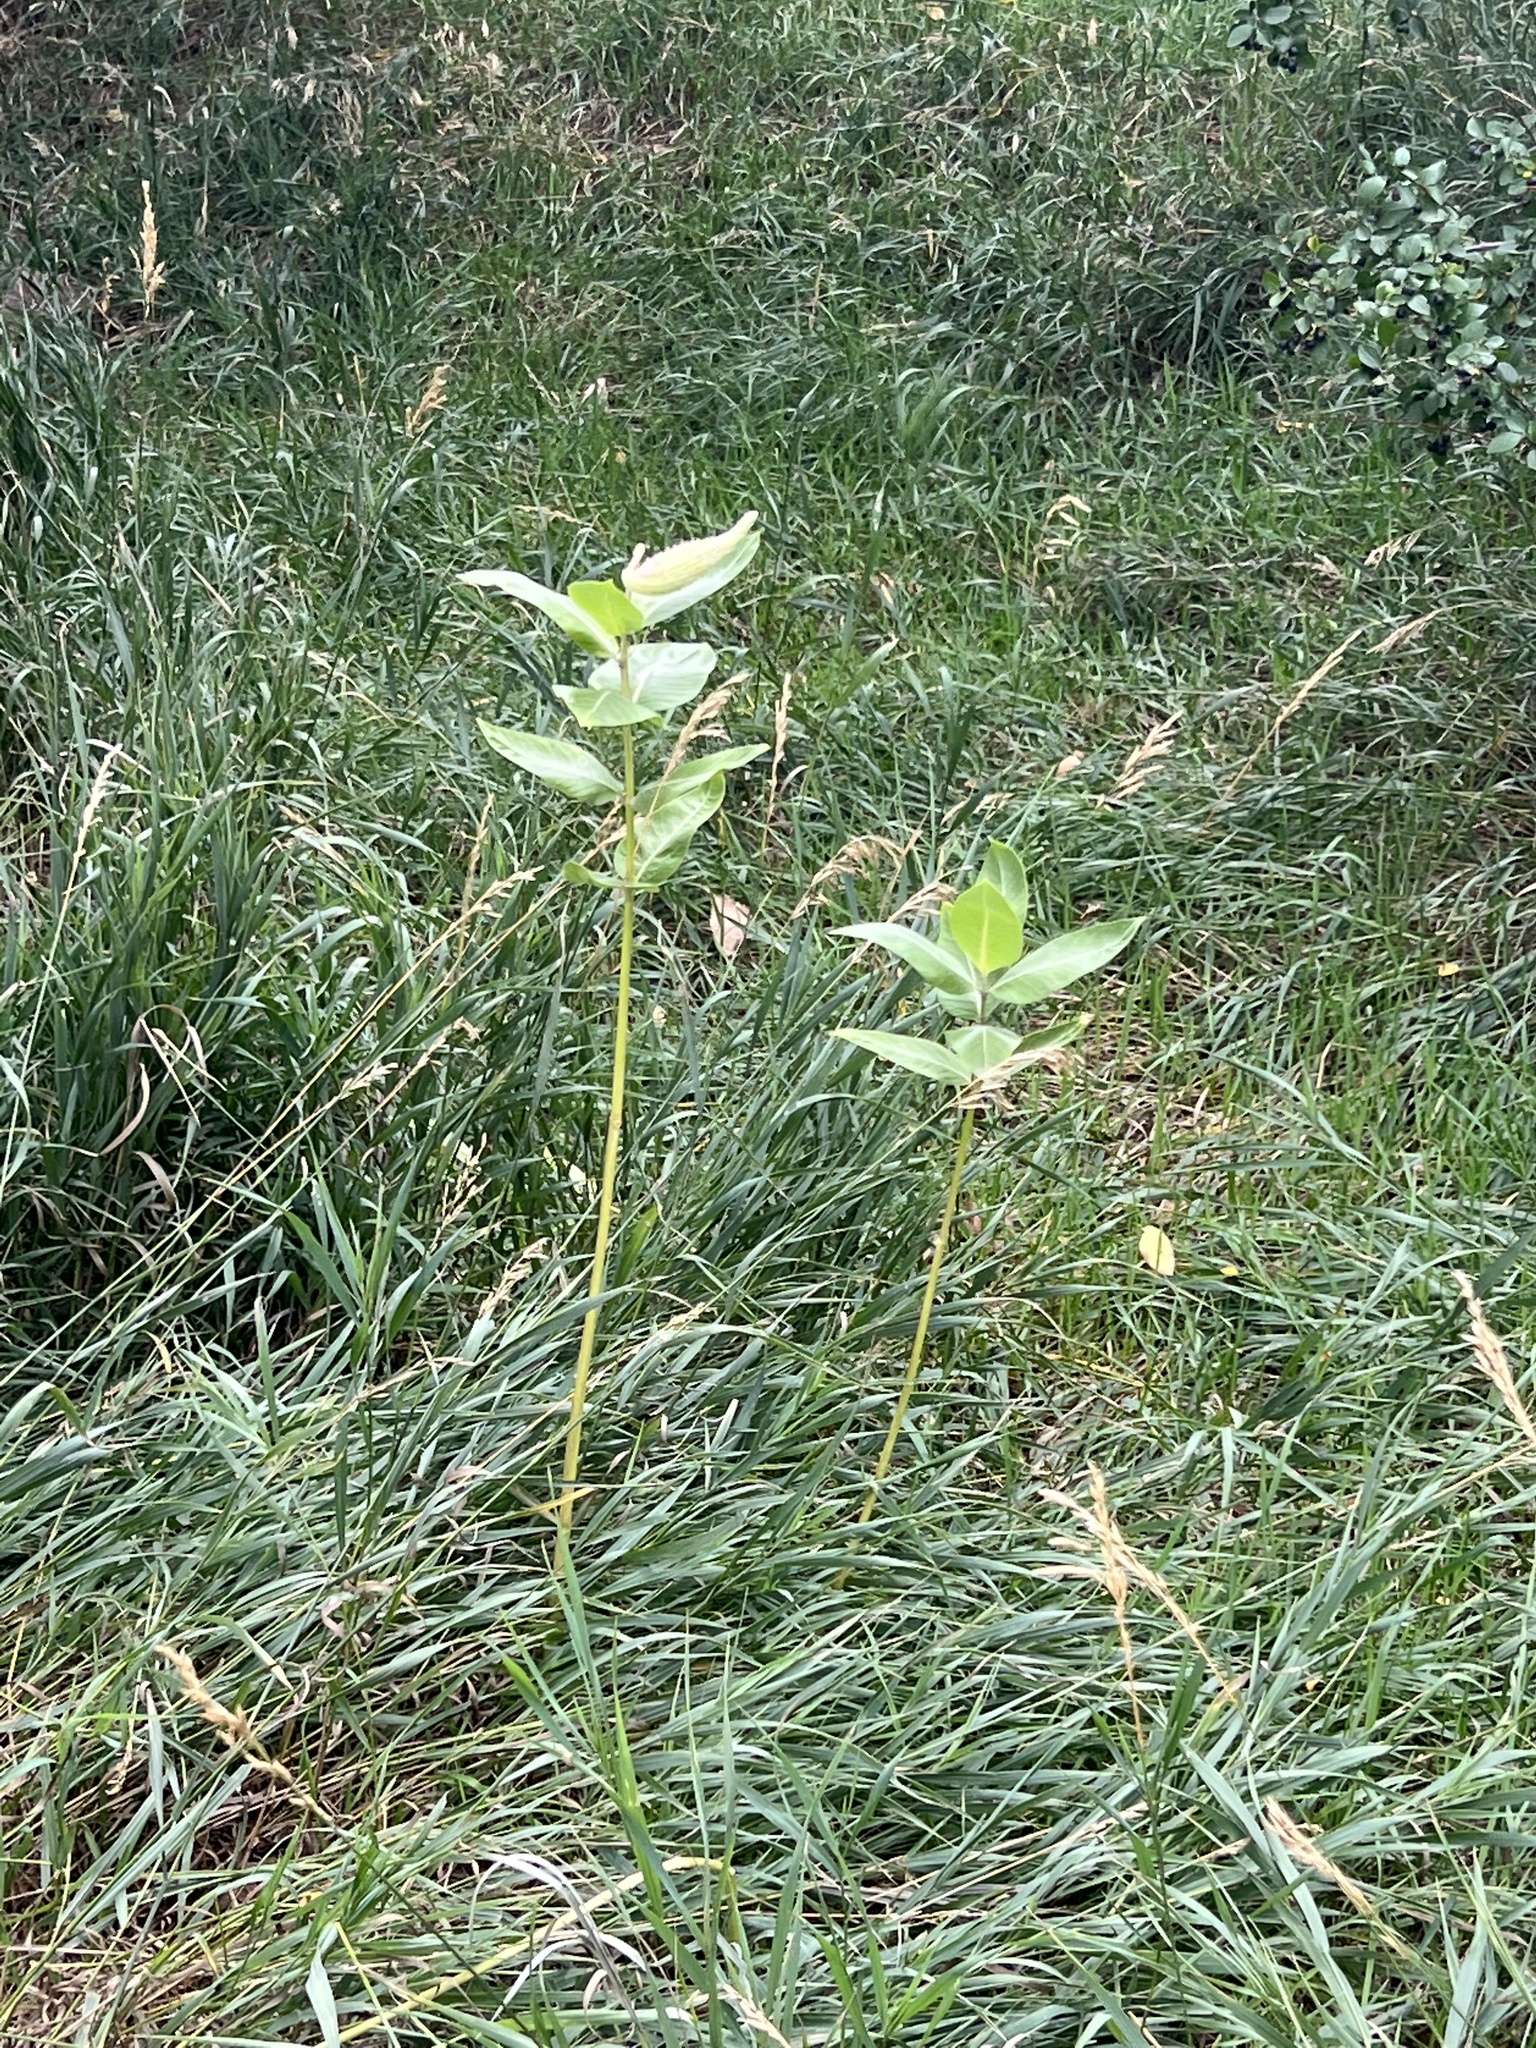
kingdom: Plantae
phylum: Tracheophyta
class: Magnoliopsida
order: Gentianales
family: Apocynaceae
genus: Asclepias
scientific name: Asclepias speciosa
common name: Showy milkweed
